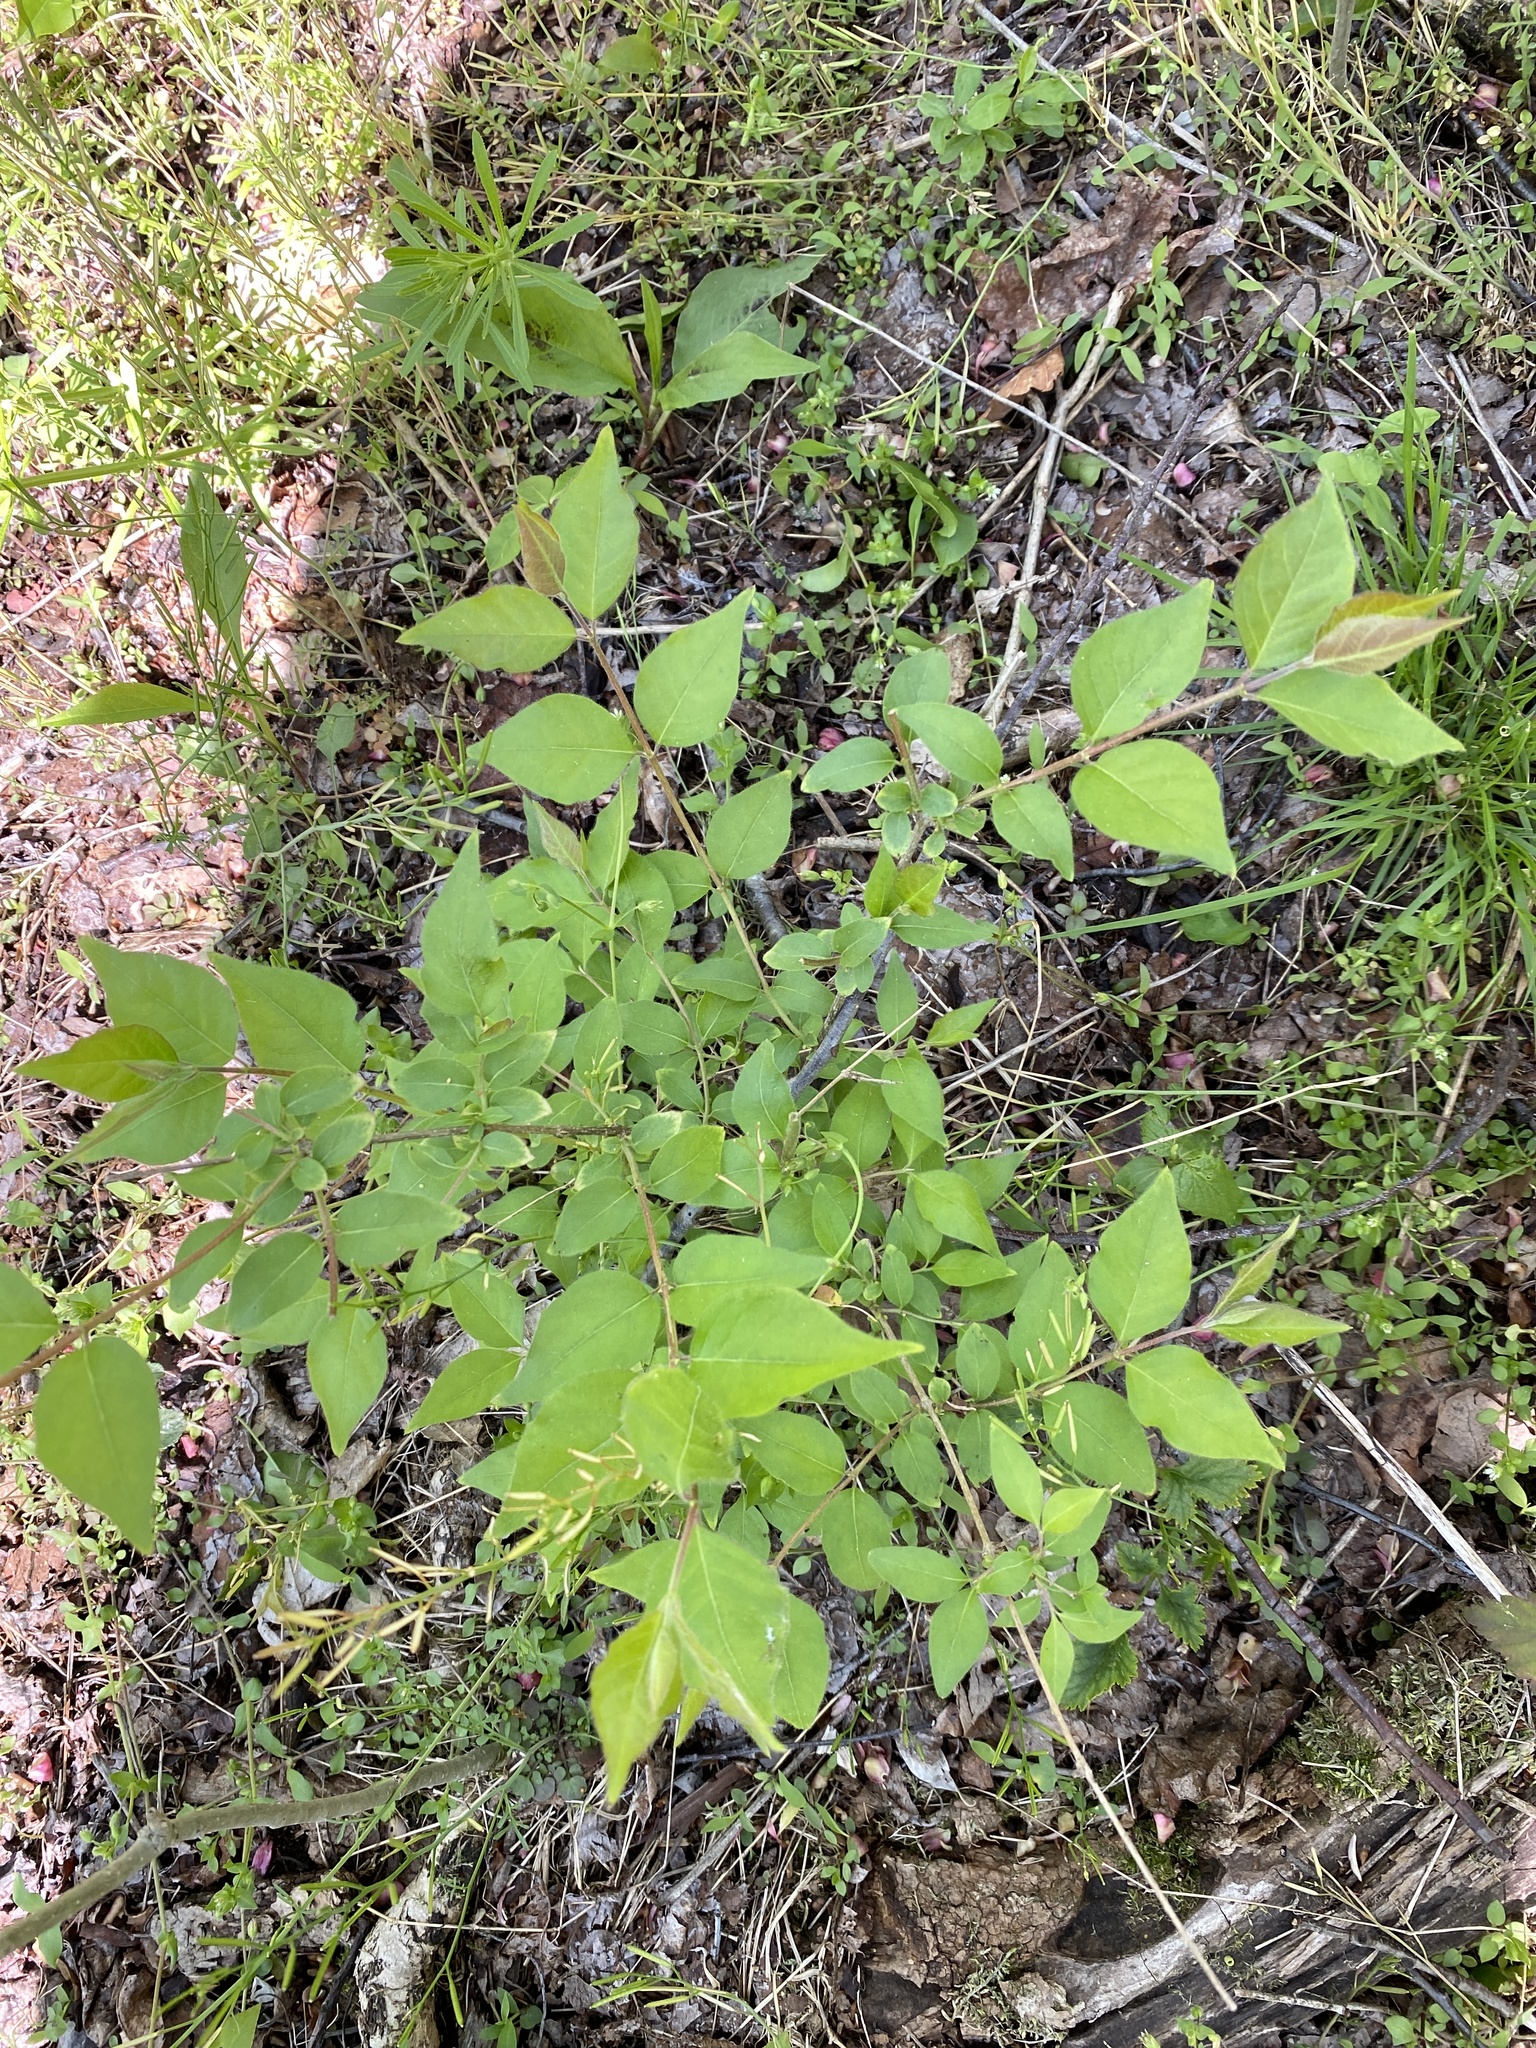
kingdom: Plantae
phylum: Tracheophyta
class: Magnoliopsida
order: Dipsacales
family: Caprifoliaceae
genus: Lonicera
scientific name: Lonicera maackii
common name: Amur honeysuckle
